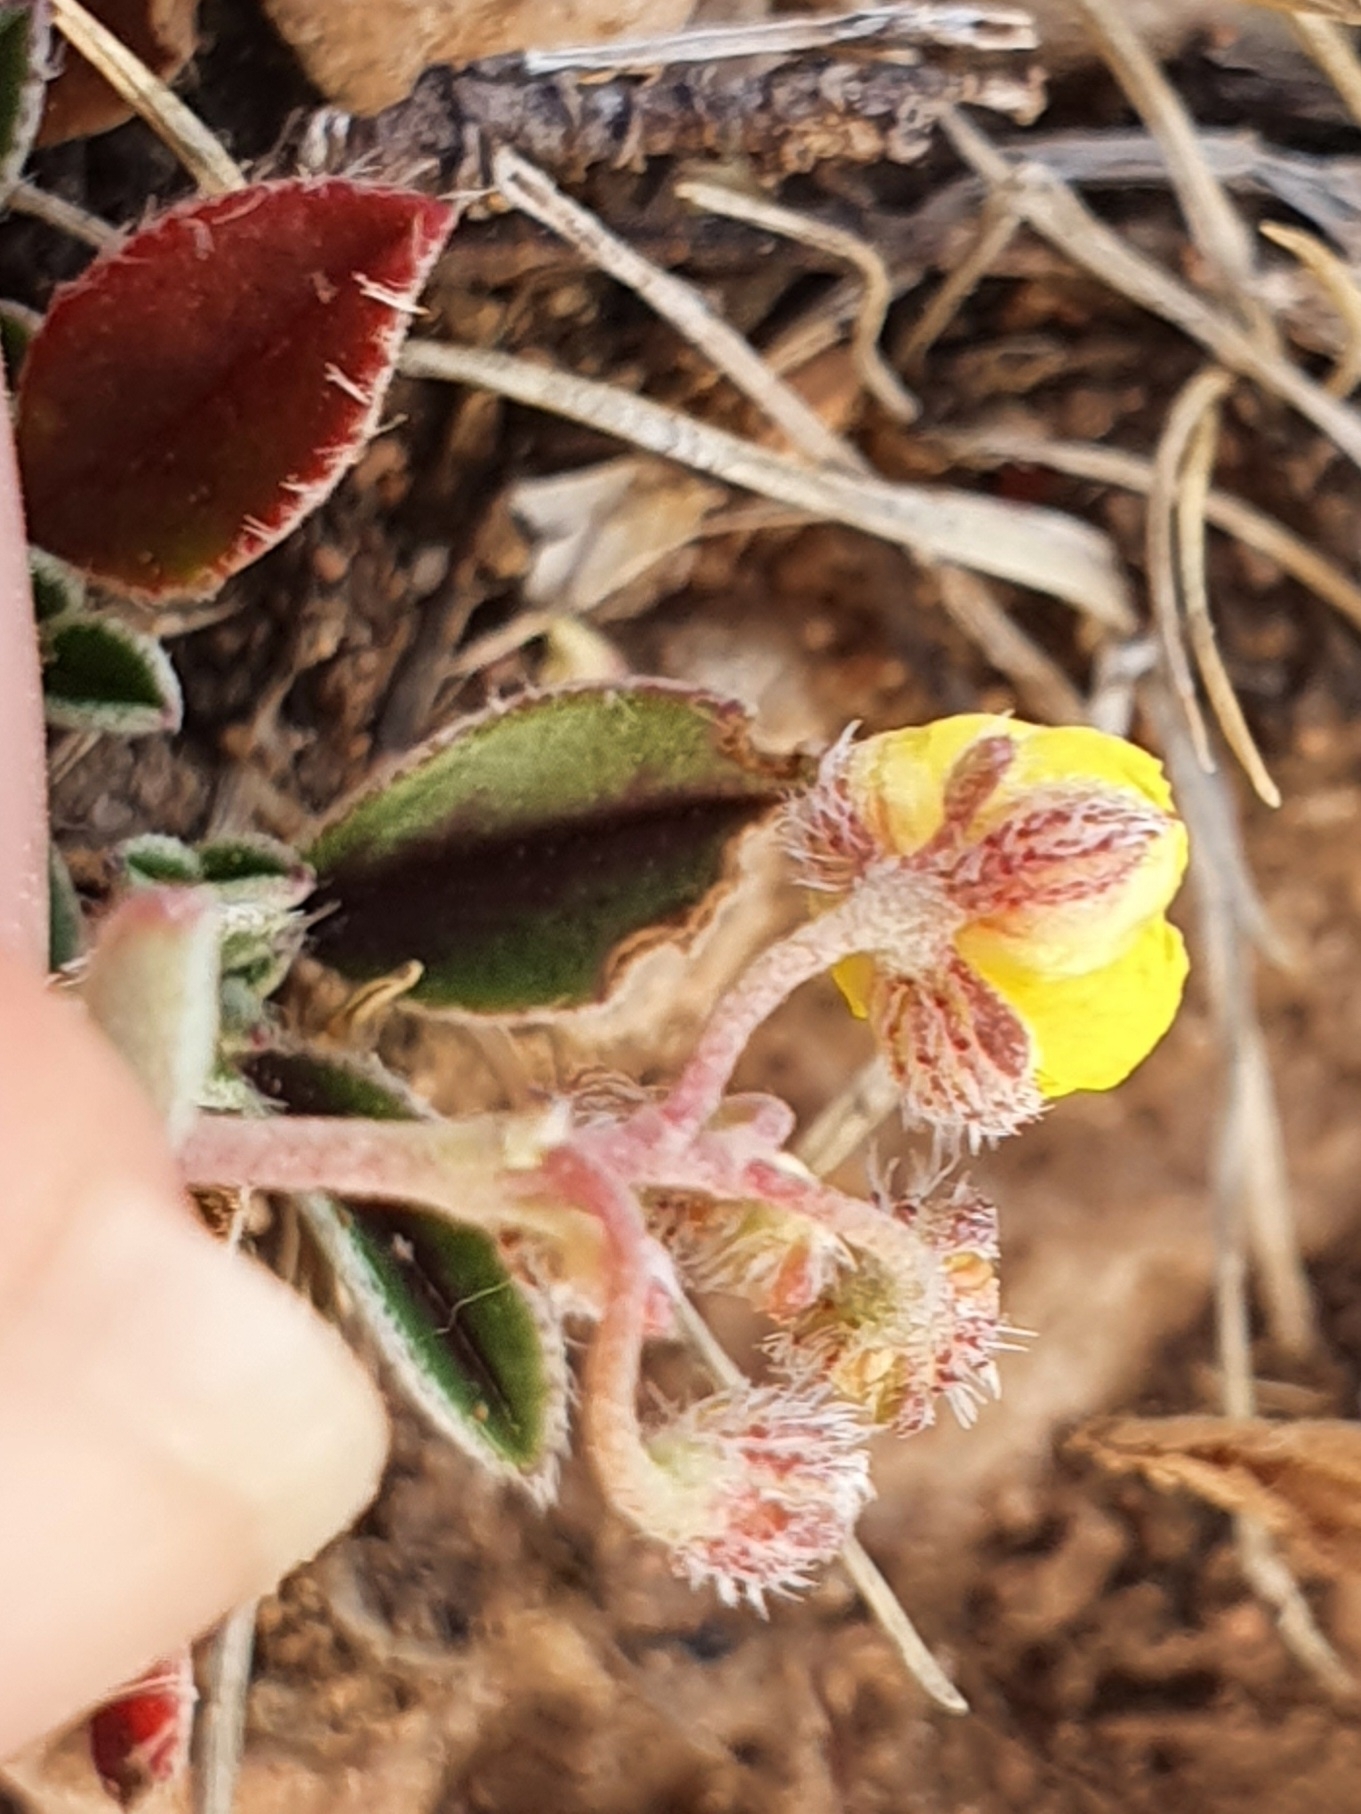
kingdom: Plantae
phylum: Tracheophyta
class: Magnoliopsida
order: Malvales
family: Cistaceae
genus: Helianthemum
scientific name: Helianthemum cinereum
